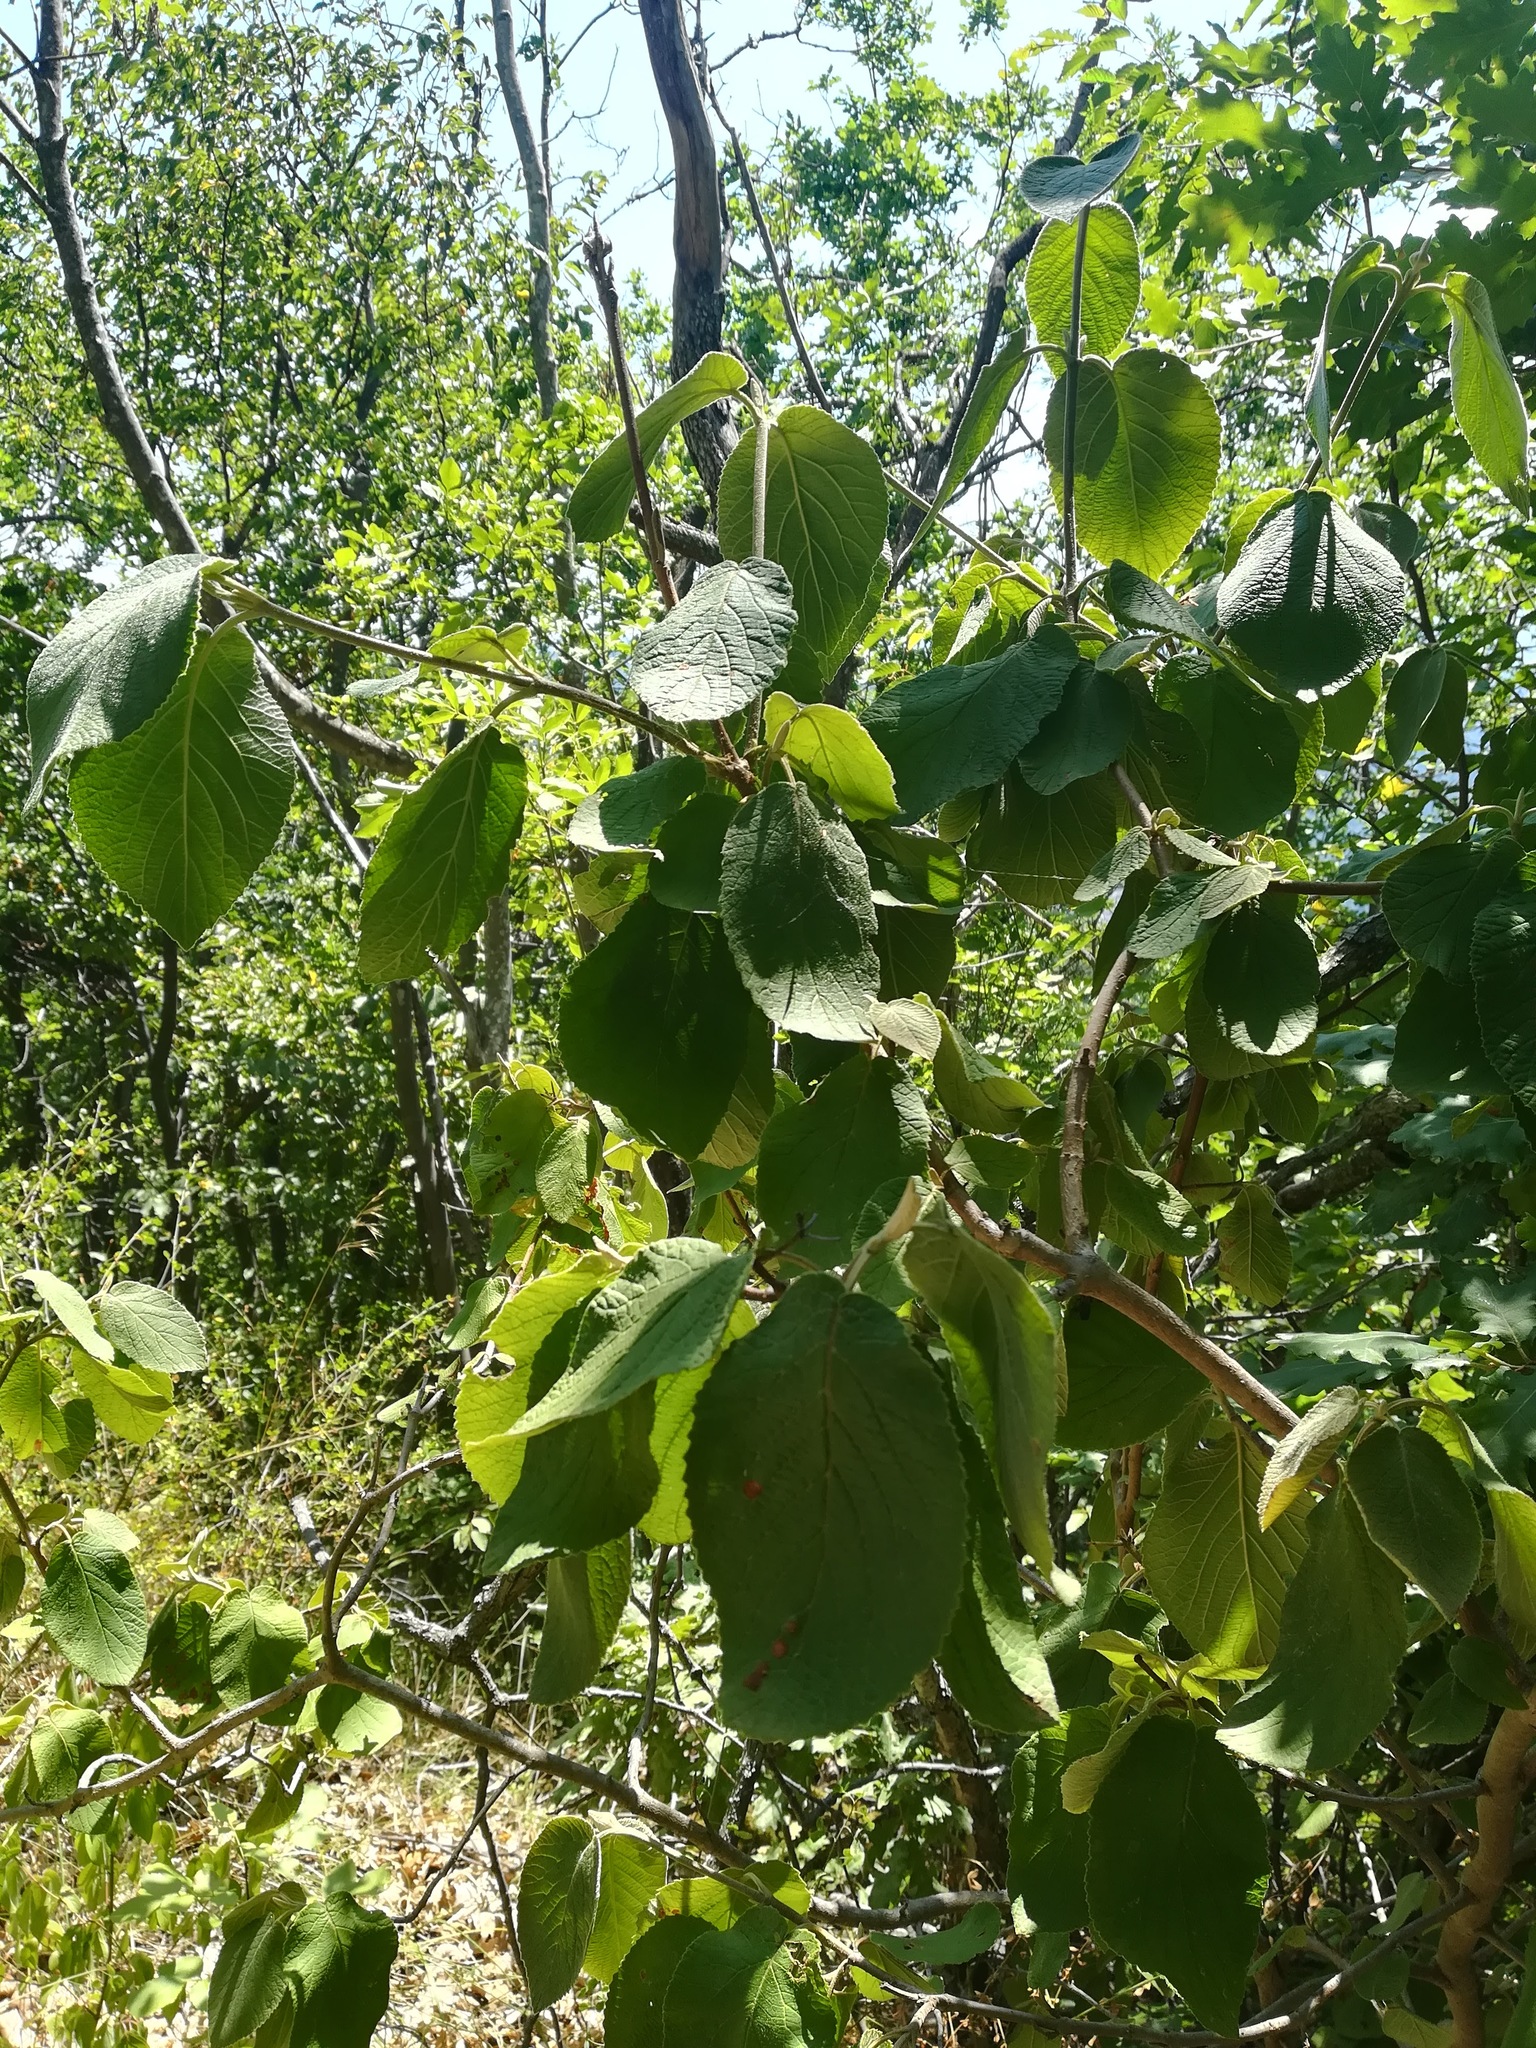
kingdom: Plantae
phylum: Tracheophyta
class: Magnoliopsida
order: Dipsacales
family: Viburnaceae
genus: Viburnum
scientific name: Viburnum lantana
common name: Wayfaring tree
